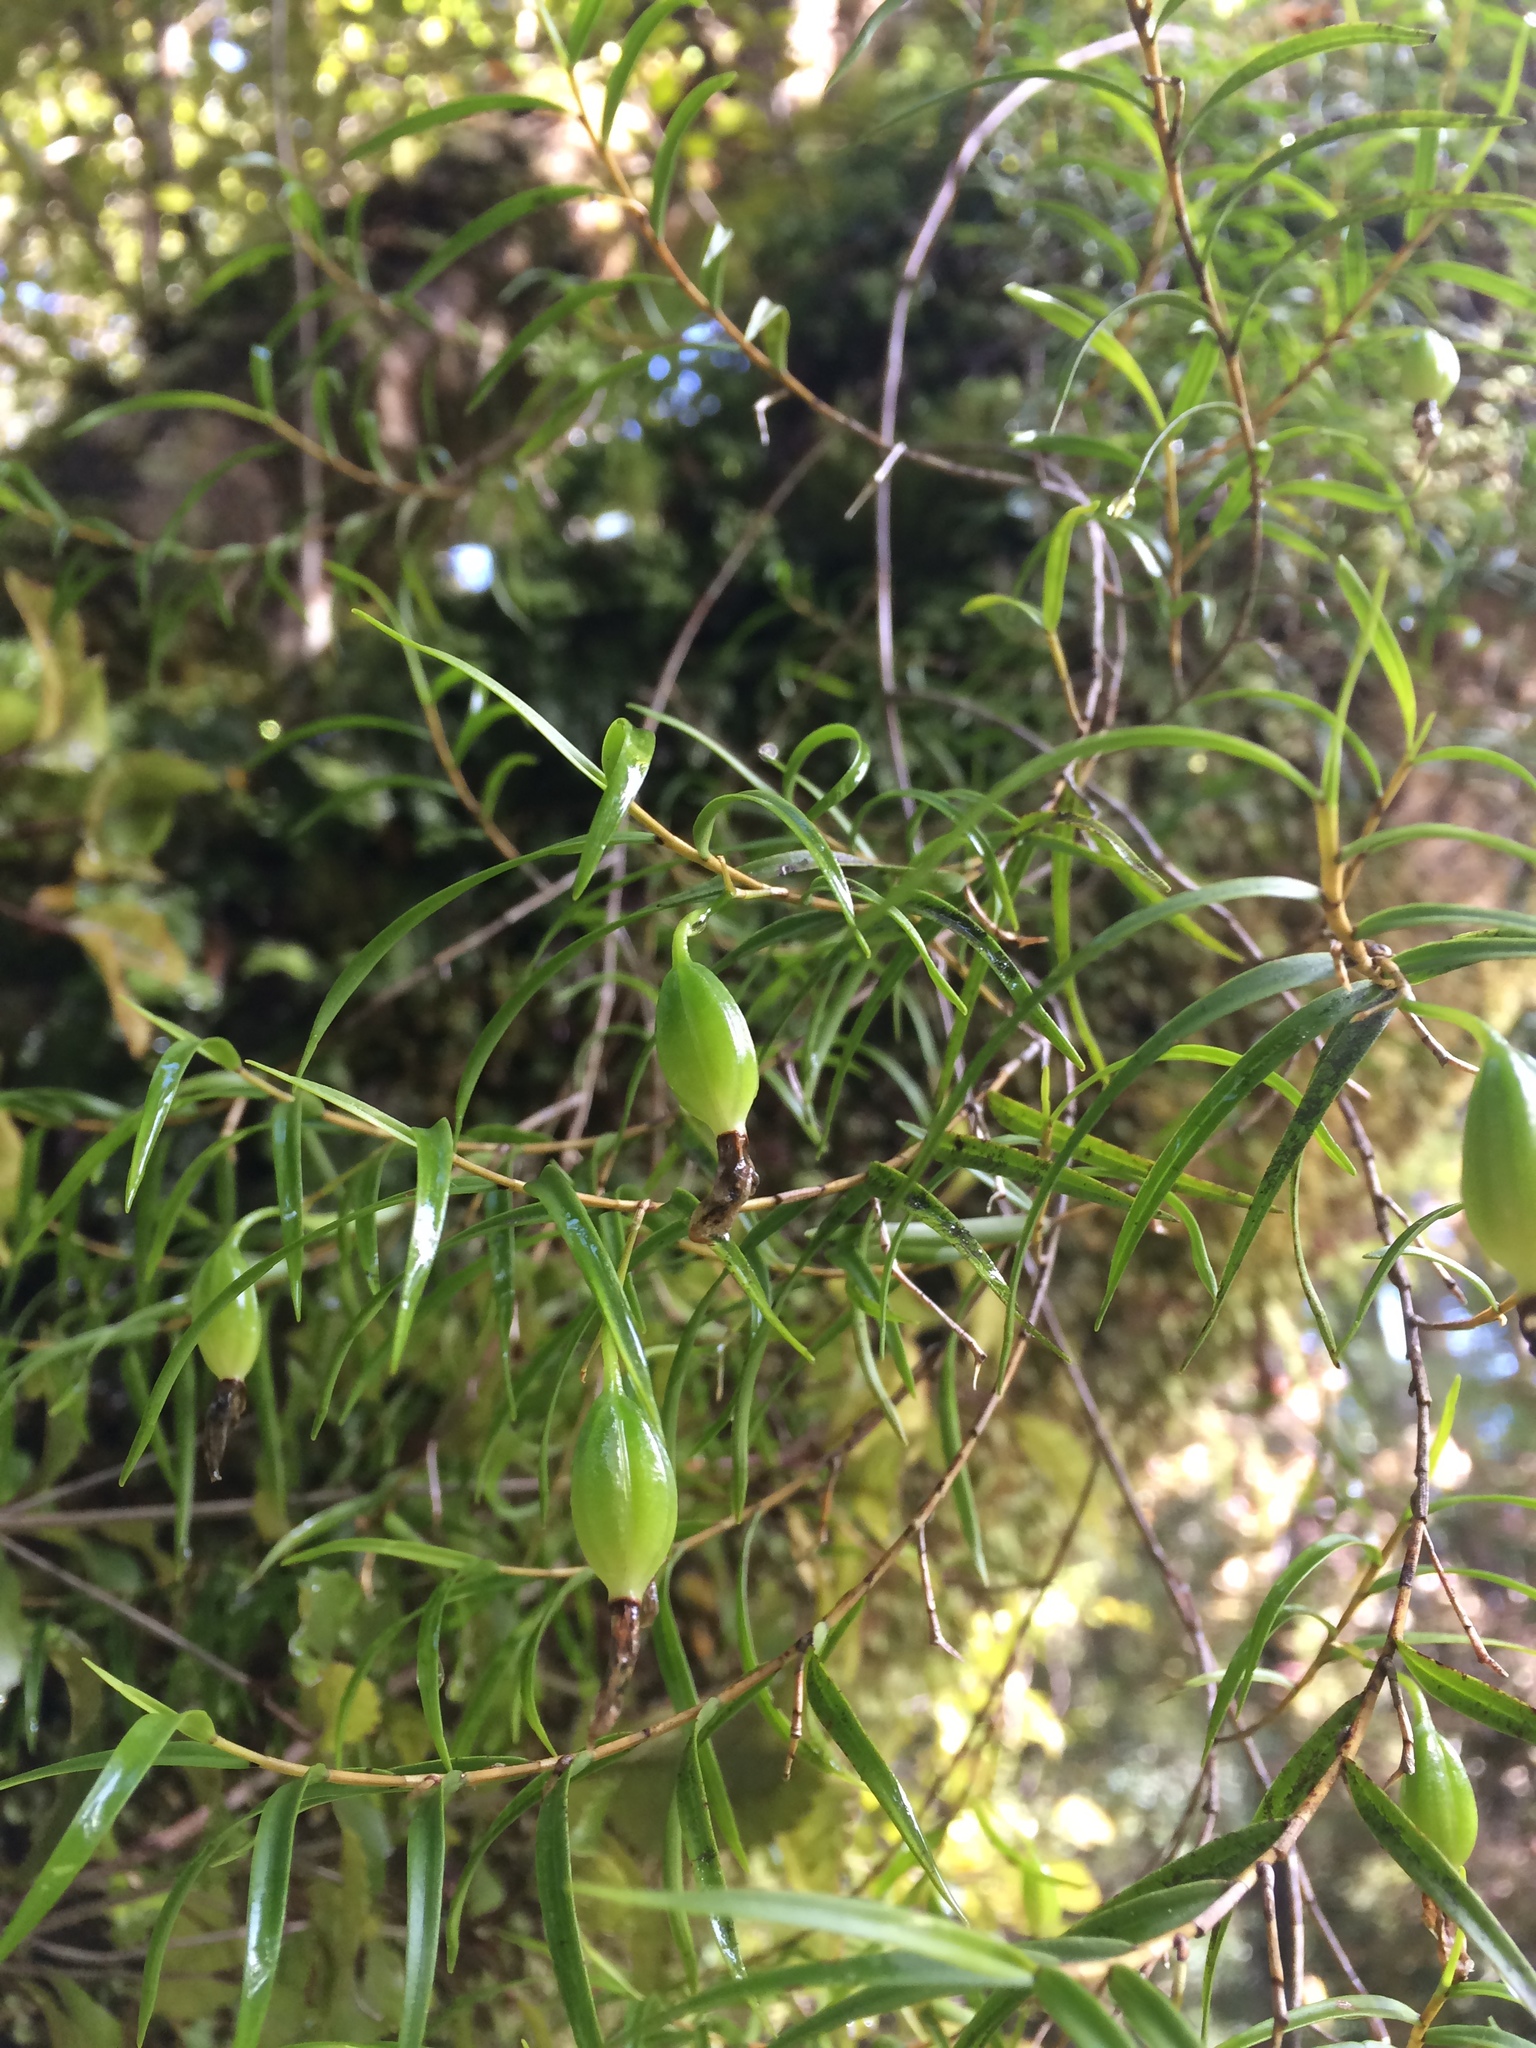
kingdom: Plantae
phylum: Tracheophyta
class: Liliopsida
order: Asparagales
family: Orchidaceae
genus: Dendrobium
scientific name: Dendrobium cunninghamii
